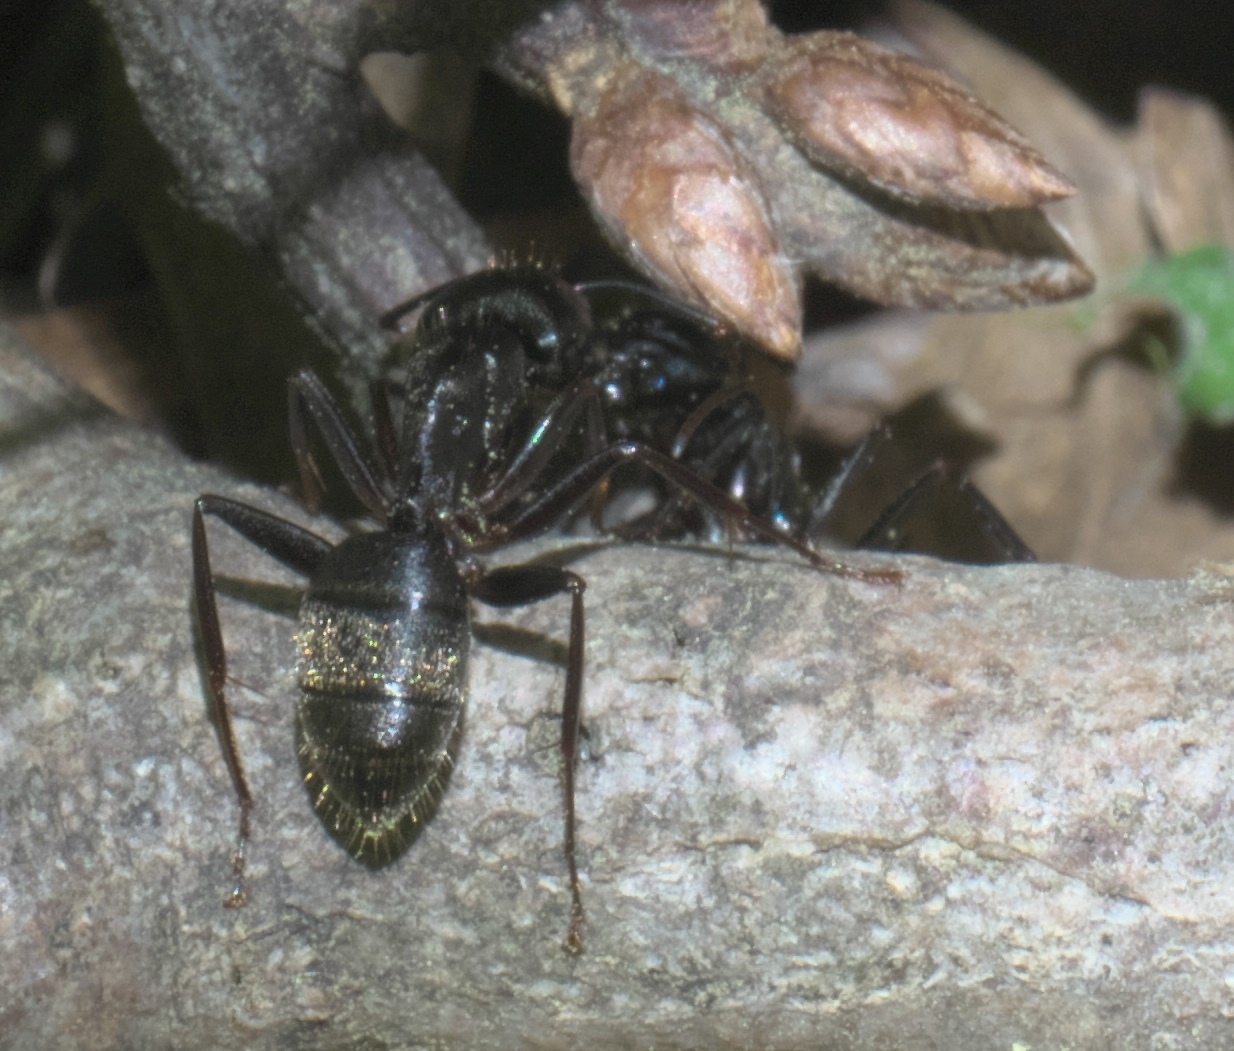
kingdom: Animalia
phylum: Arthropoda
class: Insecta
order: Hymenoptera
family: Formicidae
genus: Camponotus
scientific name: Camponotus pennsylvanicus
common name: Black carpenter ant
